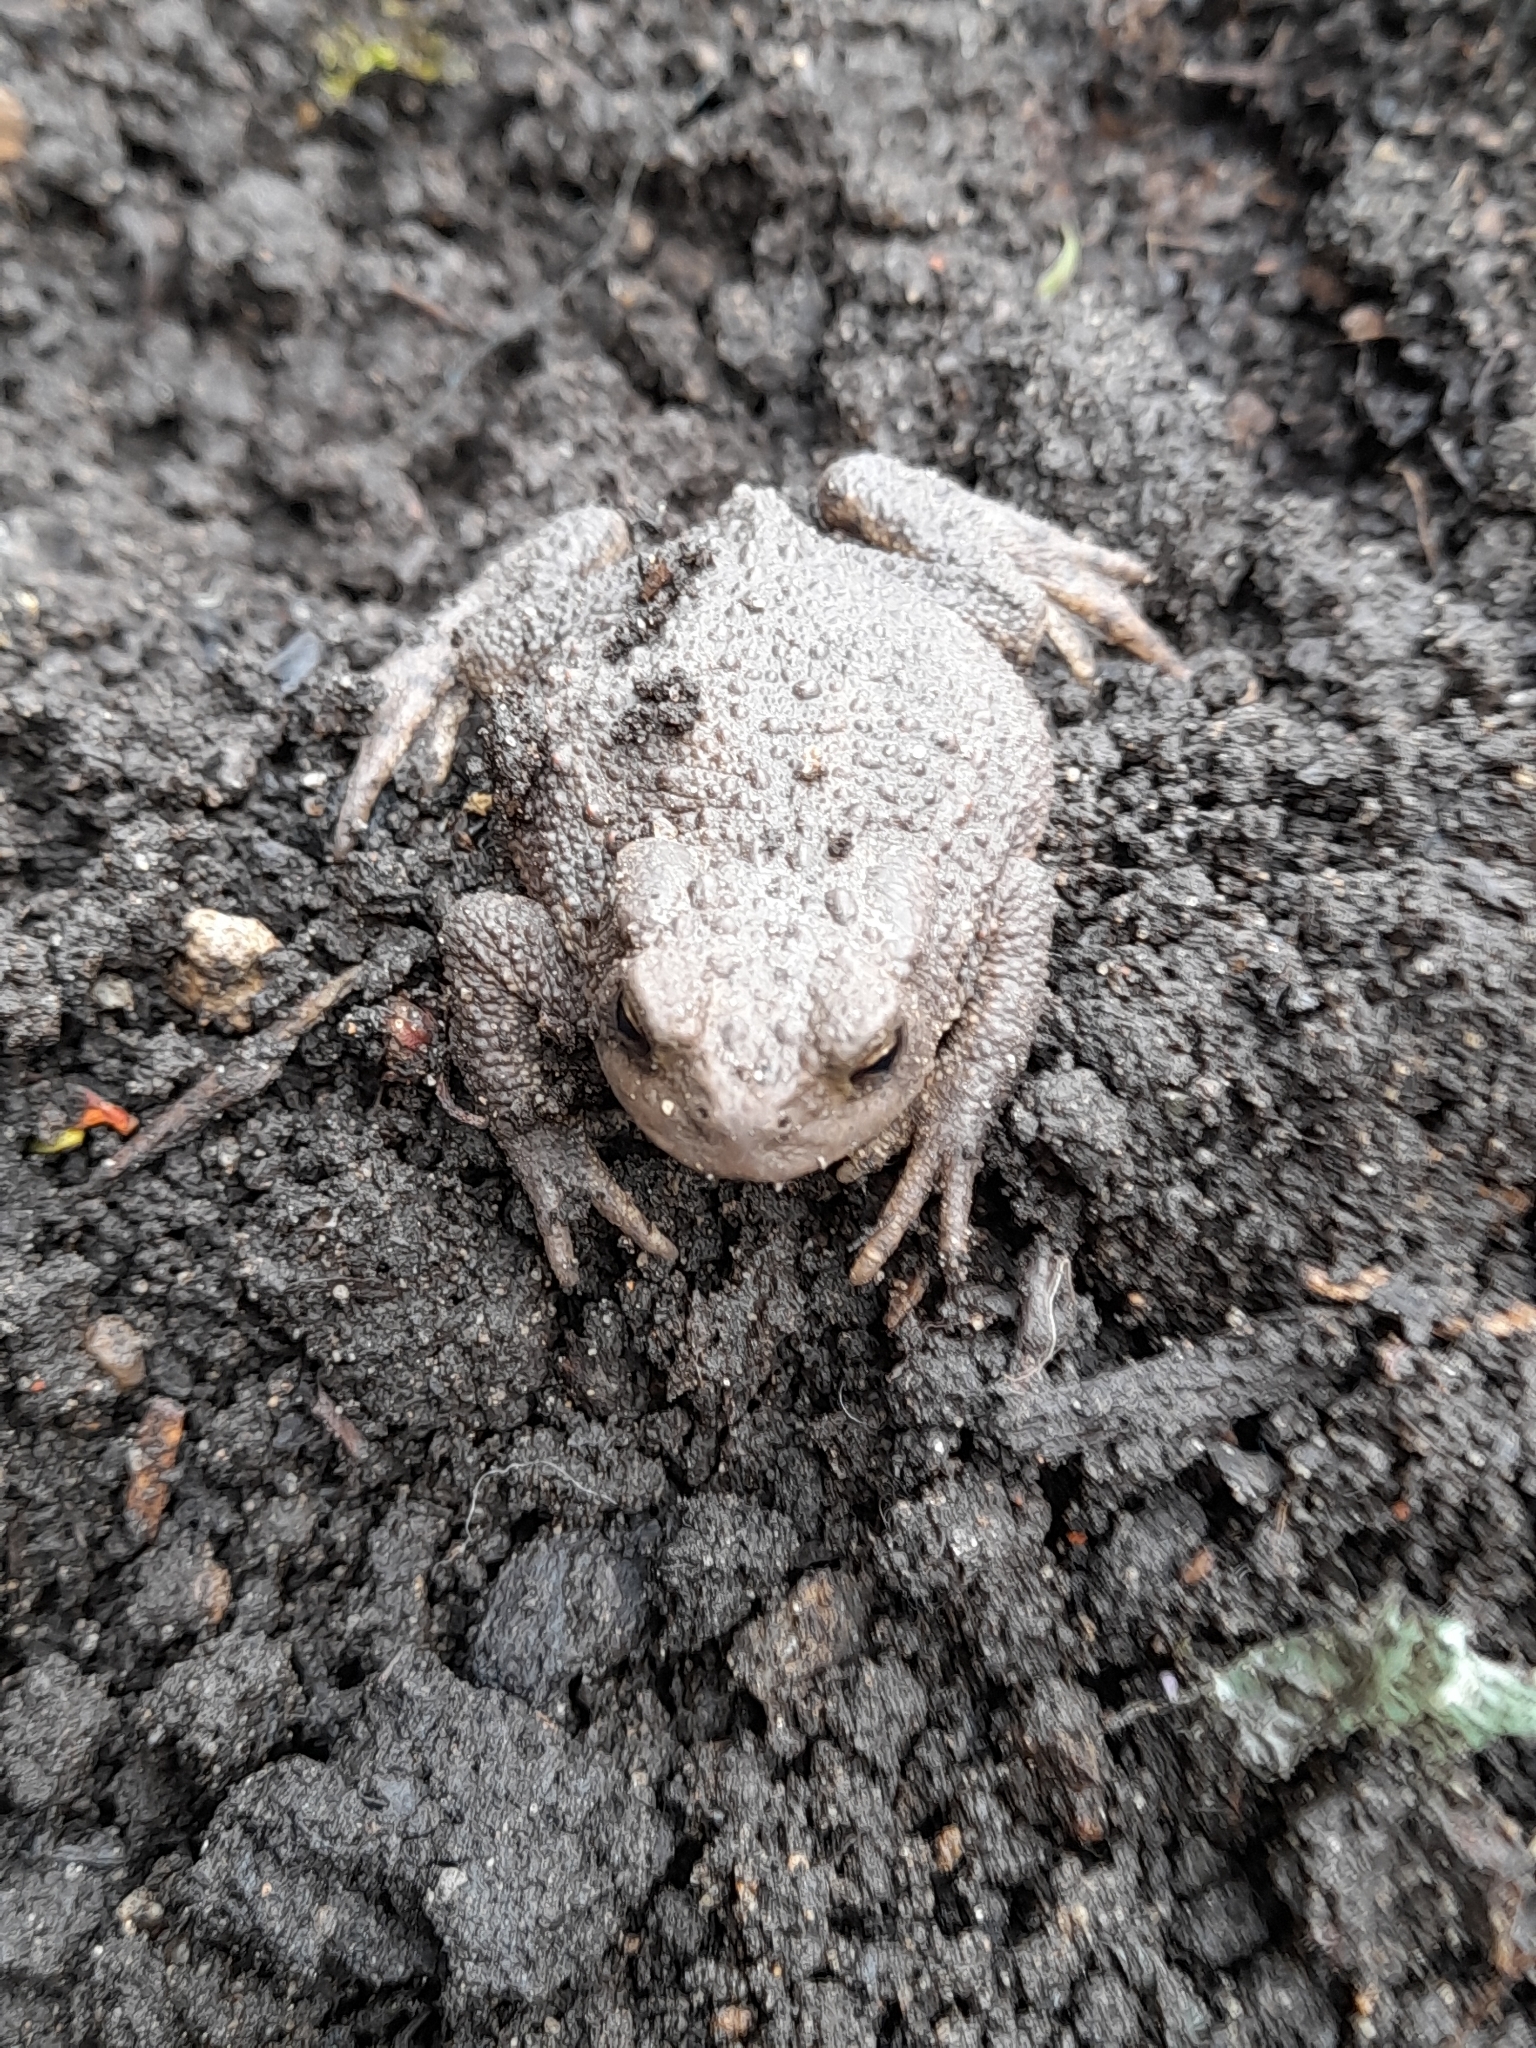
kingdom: Animalia
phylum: Chordata
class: Amphibia
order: Anura
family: Bufonidae
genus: Bufo
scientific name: Bufo bufo
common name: Common toad
